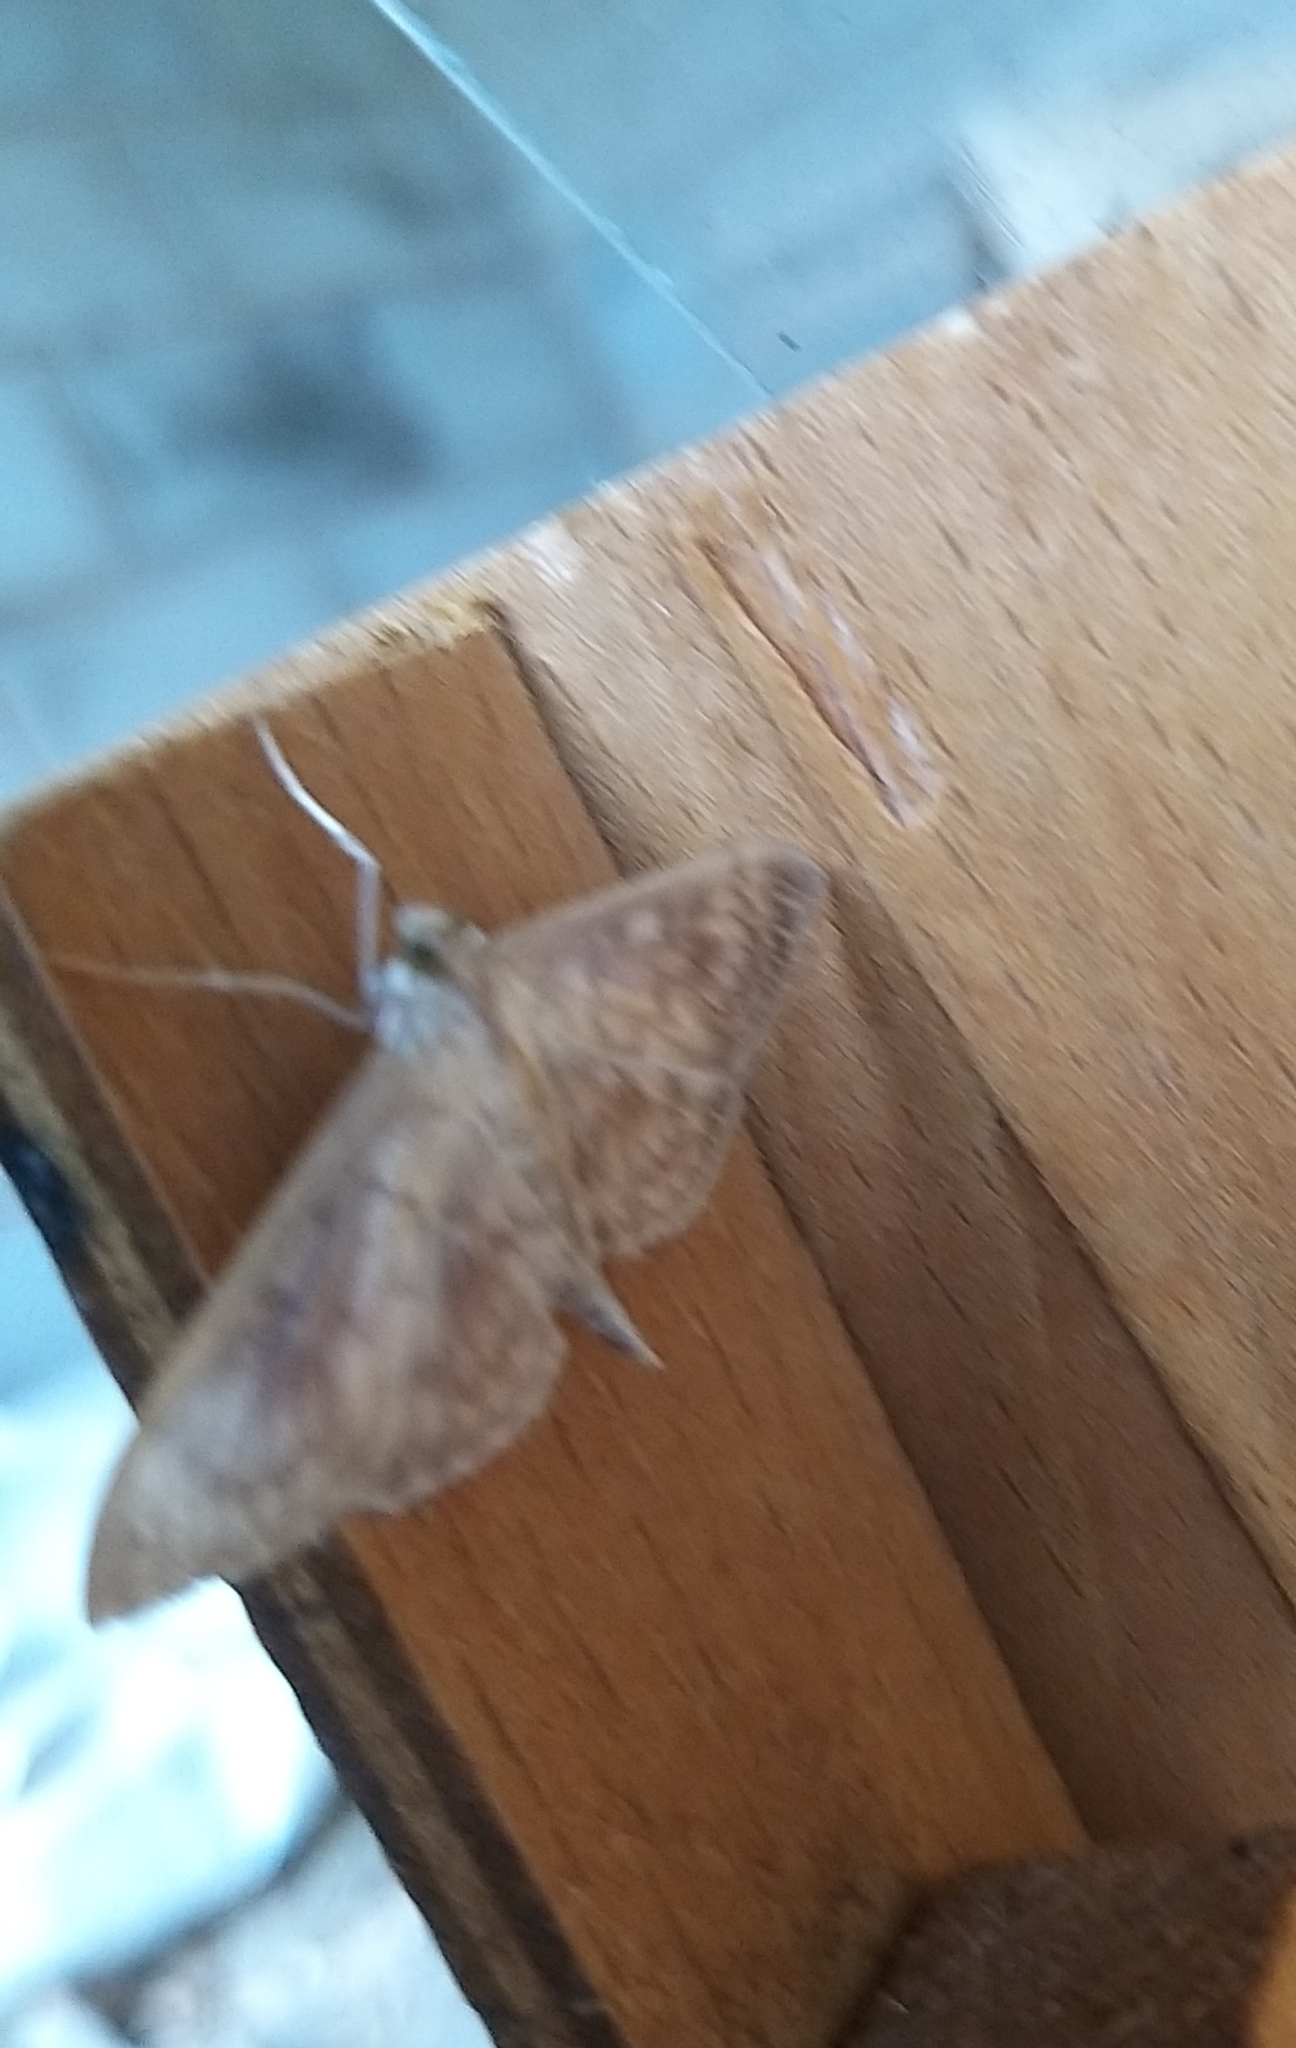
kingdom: Animalia
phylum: Arthropoda
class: Insecta
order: Lepidoptera
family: Crambidae
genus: Patania
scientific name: Patania ruralis
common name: Mother of pearl
